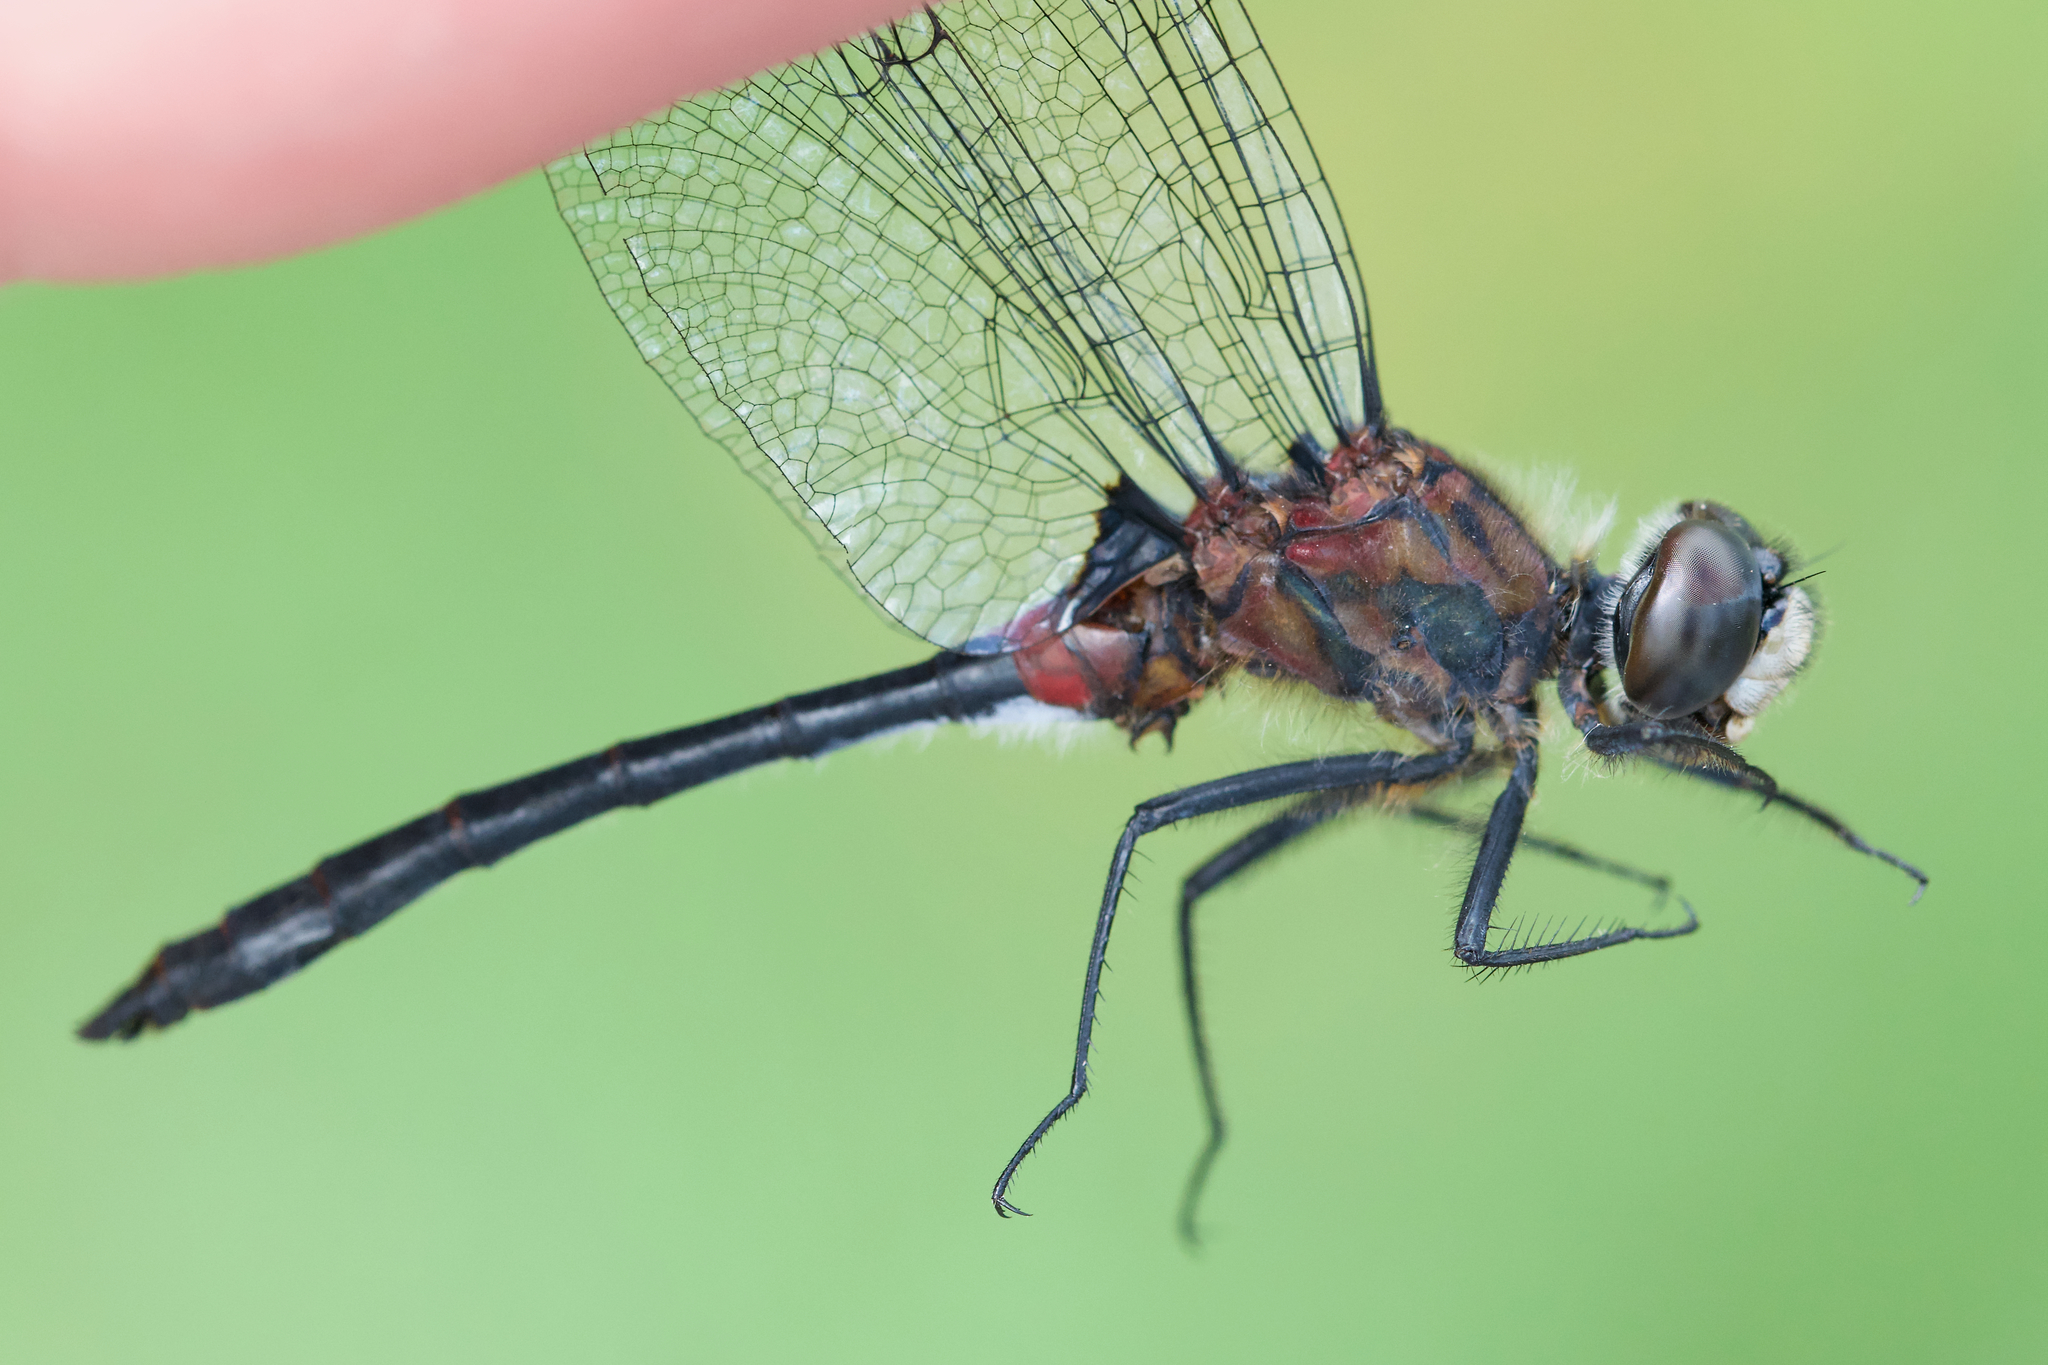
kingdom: Animalia
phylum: Arthropoda
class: Insecta
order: Odonata
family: Libellulidae
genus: Leucorrhinia
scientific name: Leucorrhinia glacialis
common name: Crimson-ringed whiteface
